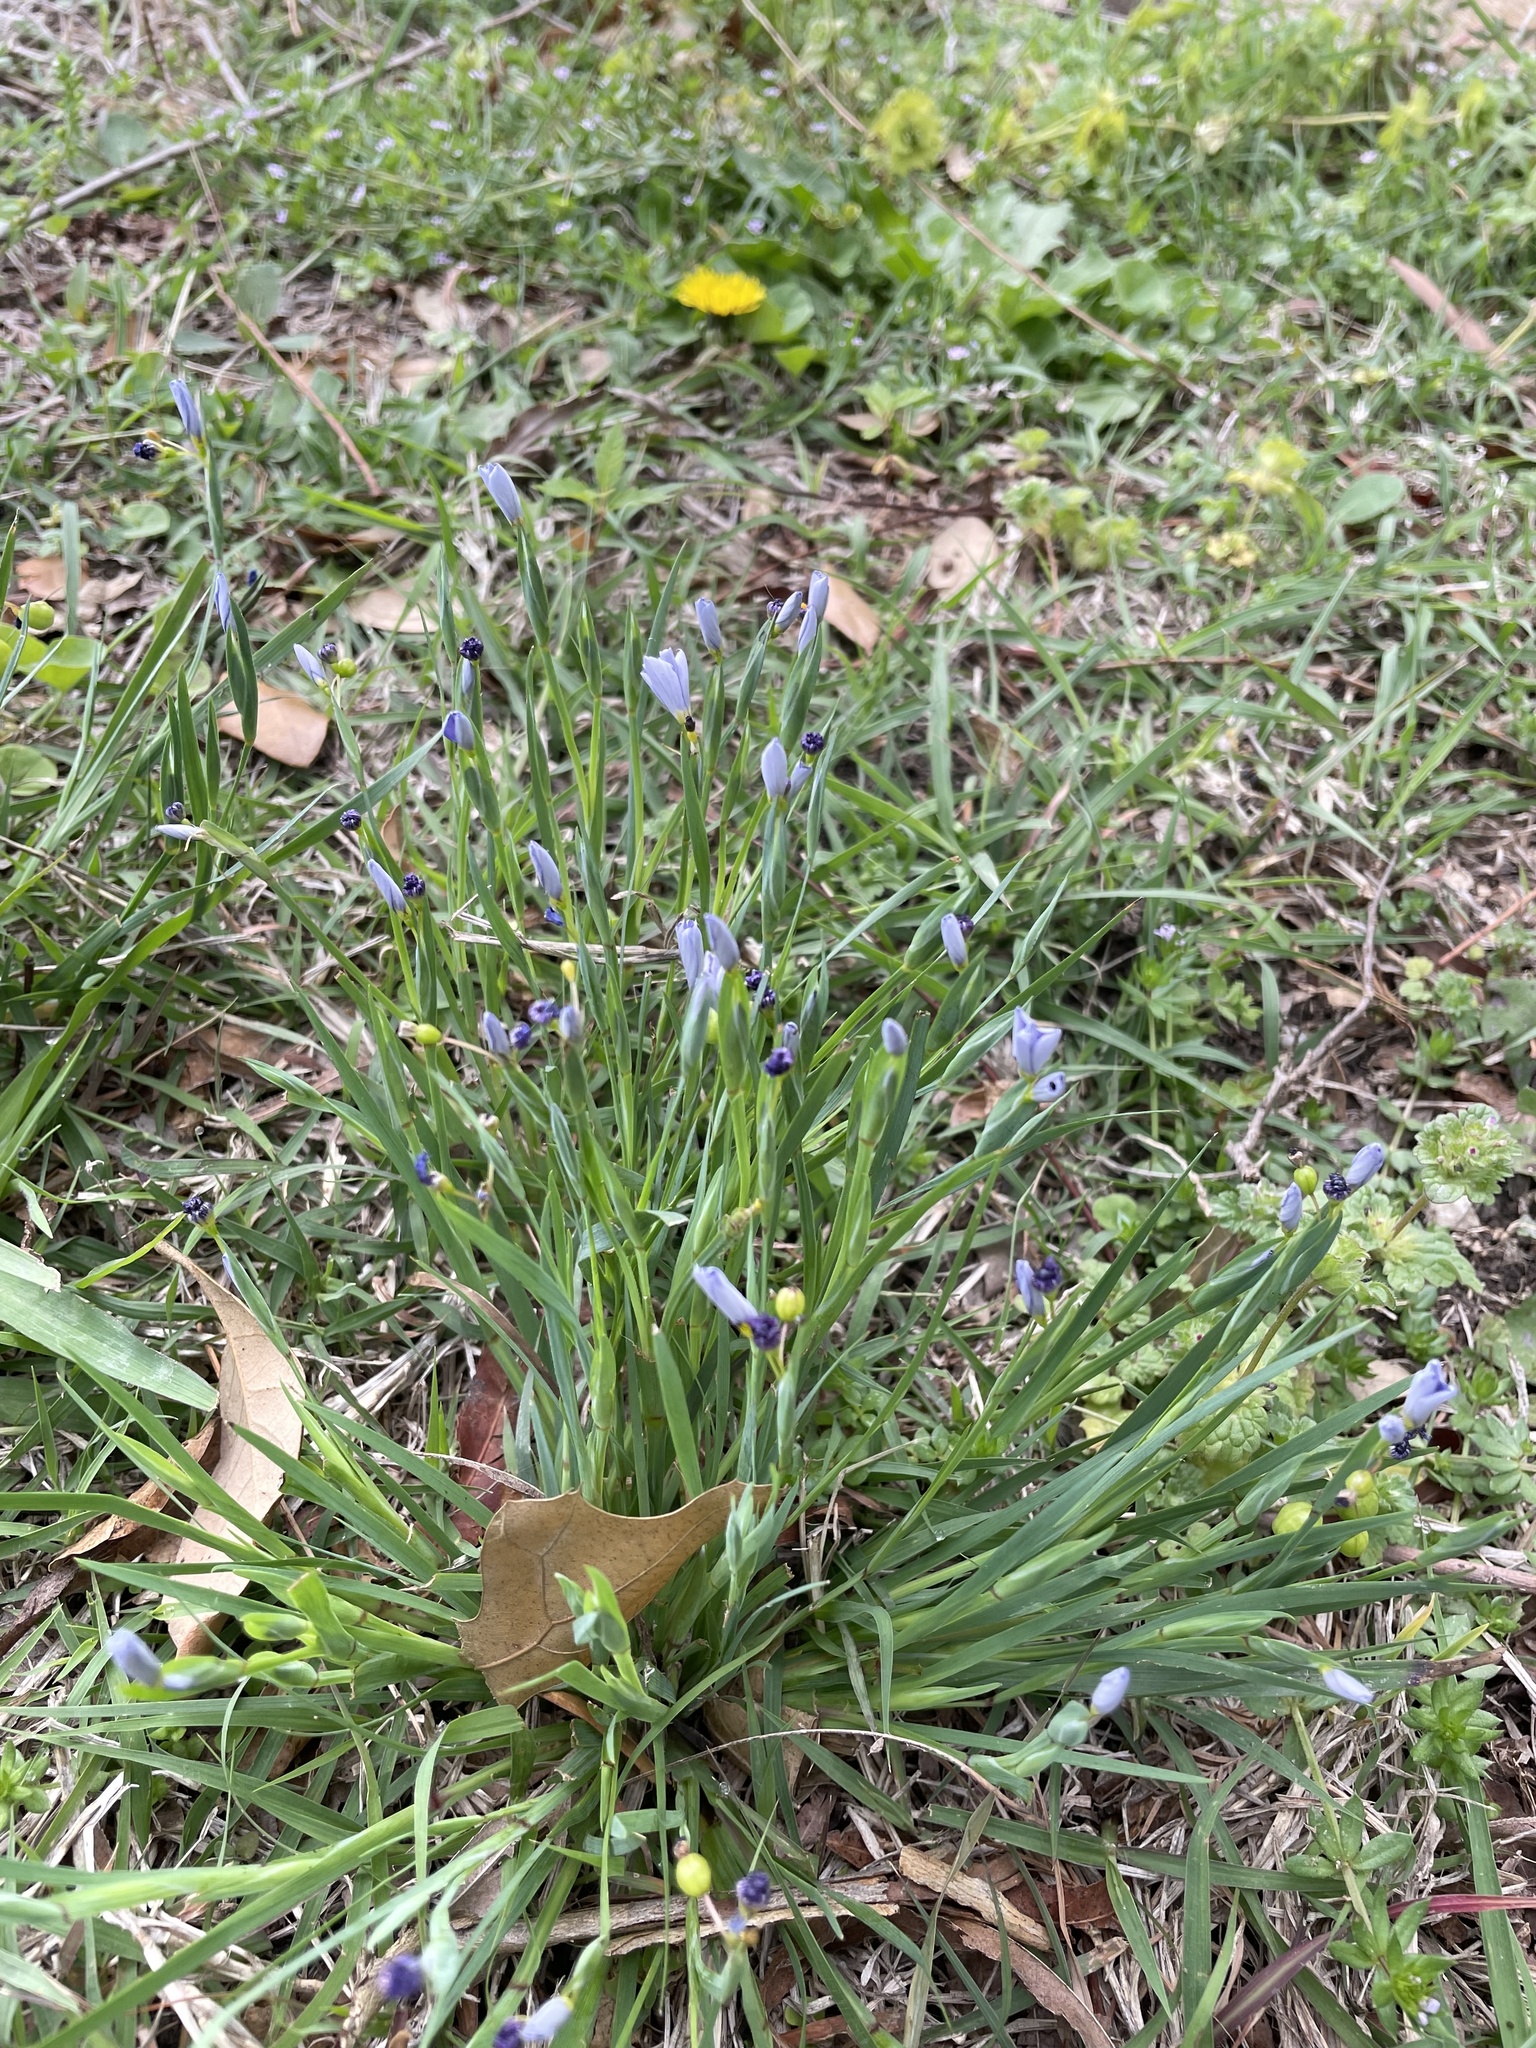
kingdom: Plantae
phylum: Tracheophyta
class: Liliopsida
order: Asparagales
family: Iridaceae
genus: Sisyrinchium
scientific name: Sisyrinchium pruinosum
